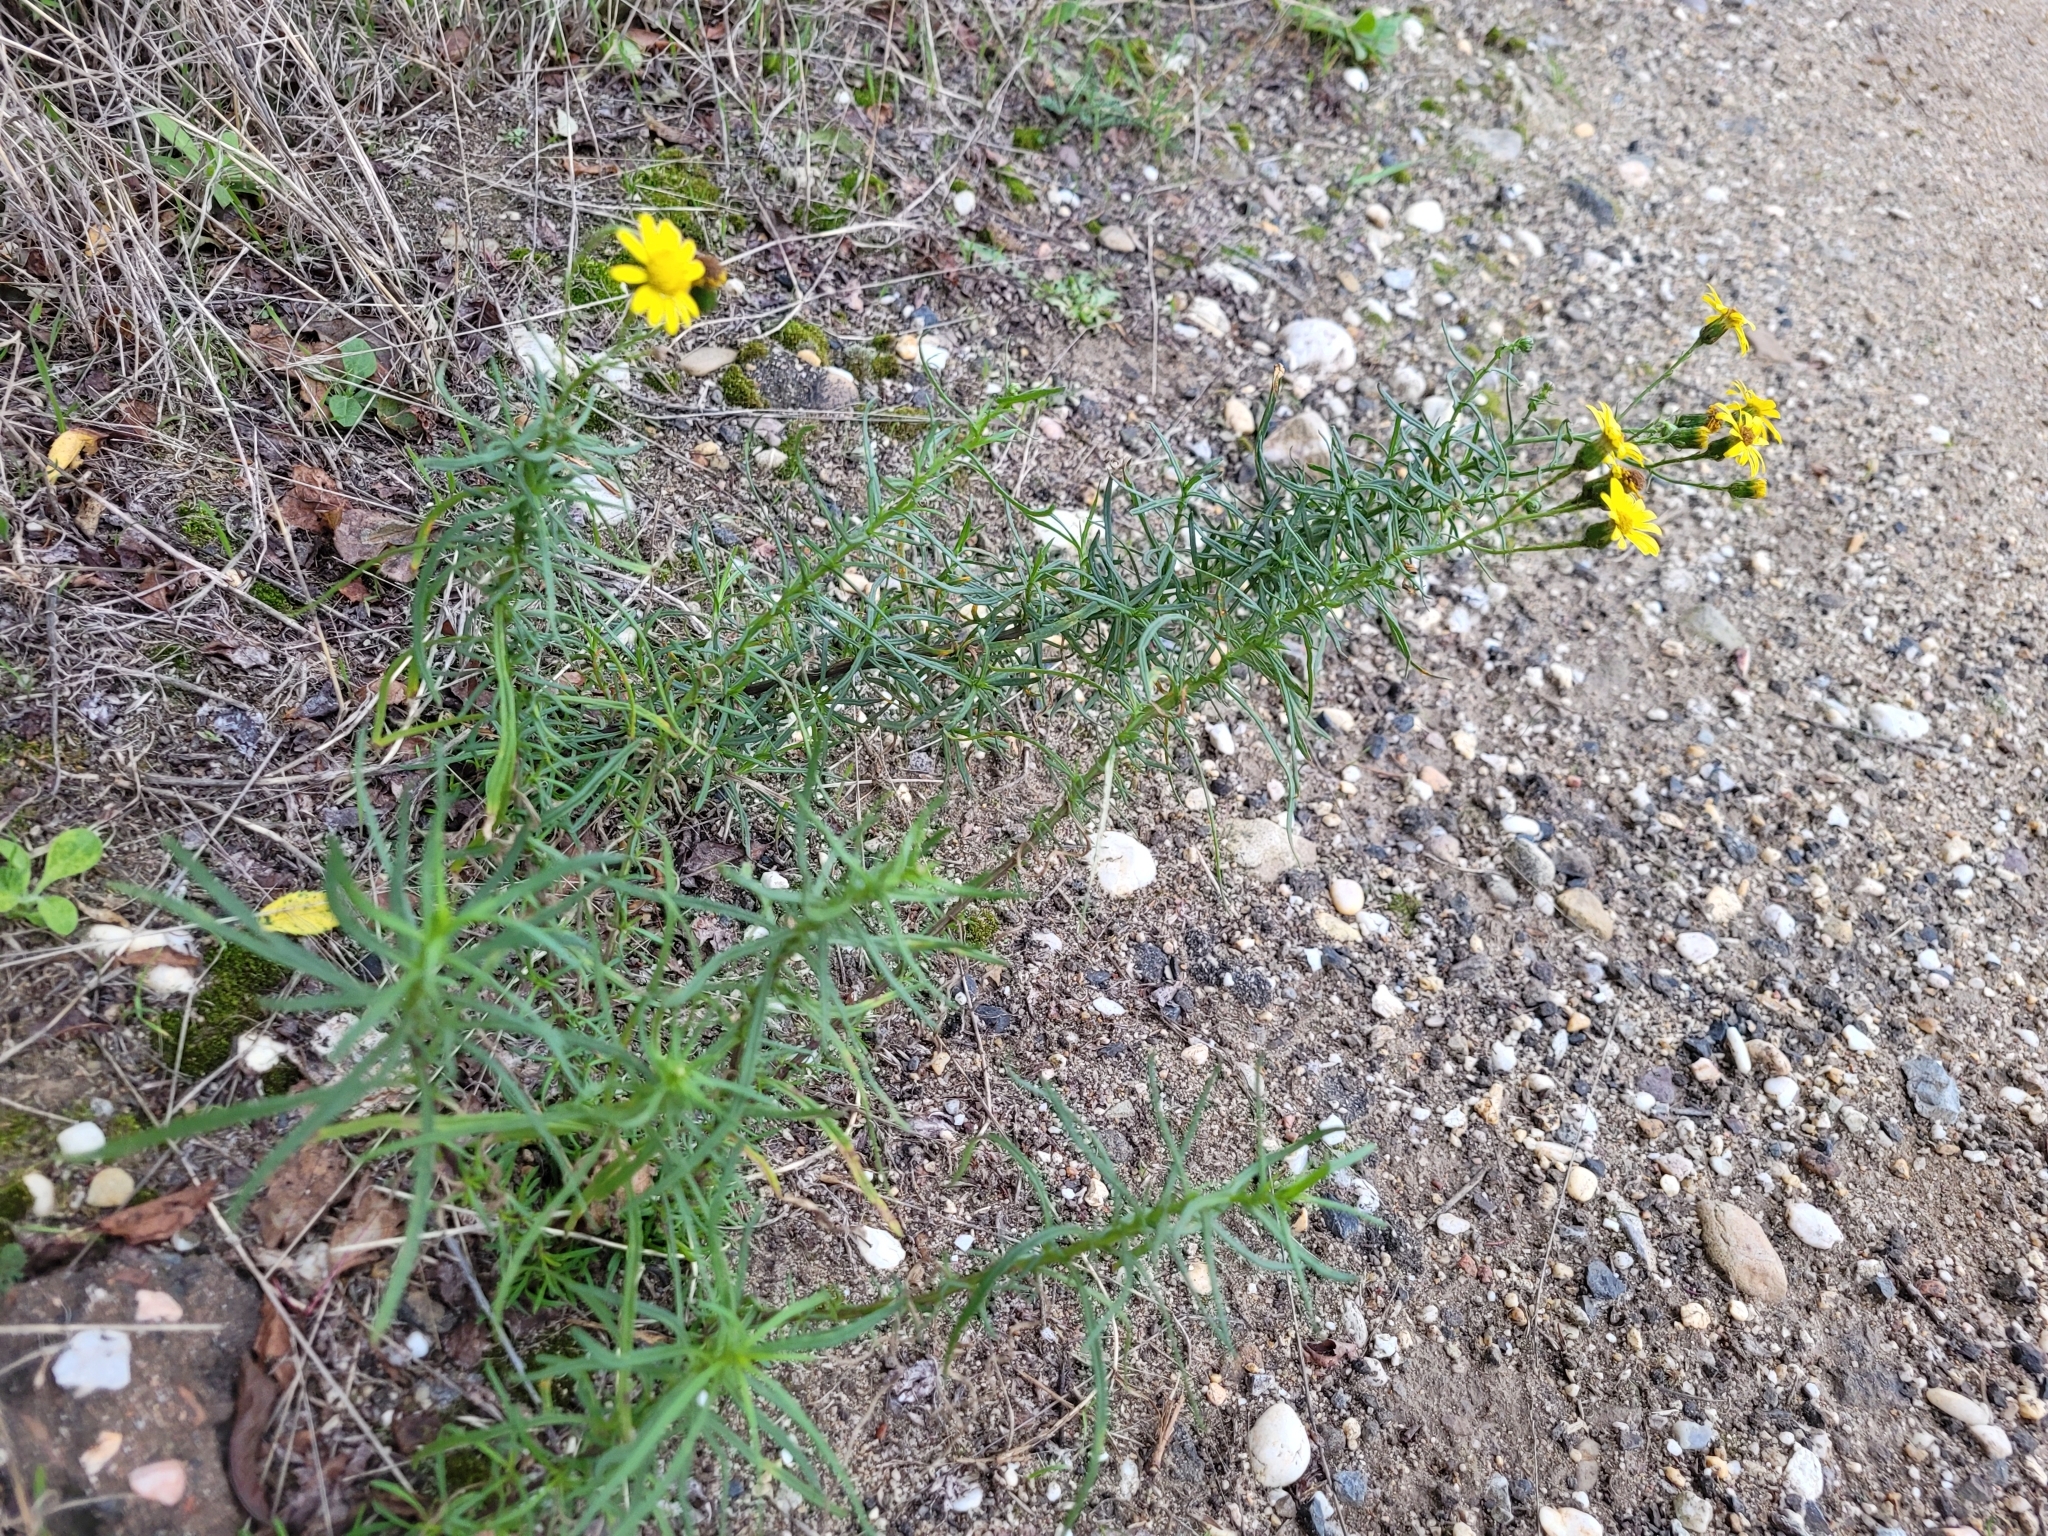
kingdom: Plantae
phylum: Tracheophyta
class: Magnoliopsida
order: Asterales
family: Asteraceae
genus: Senecio
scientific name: Senecio inaequidens
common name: Narrow-leaved ragwort
